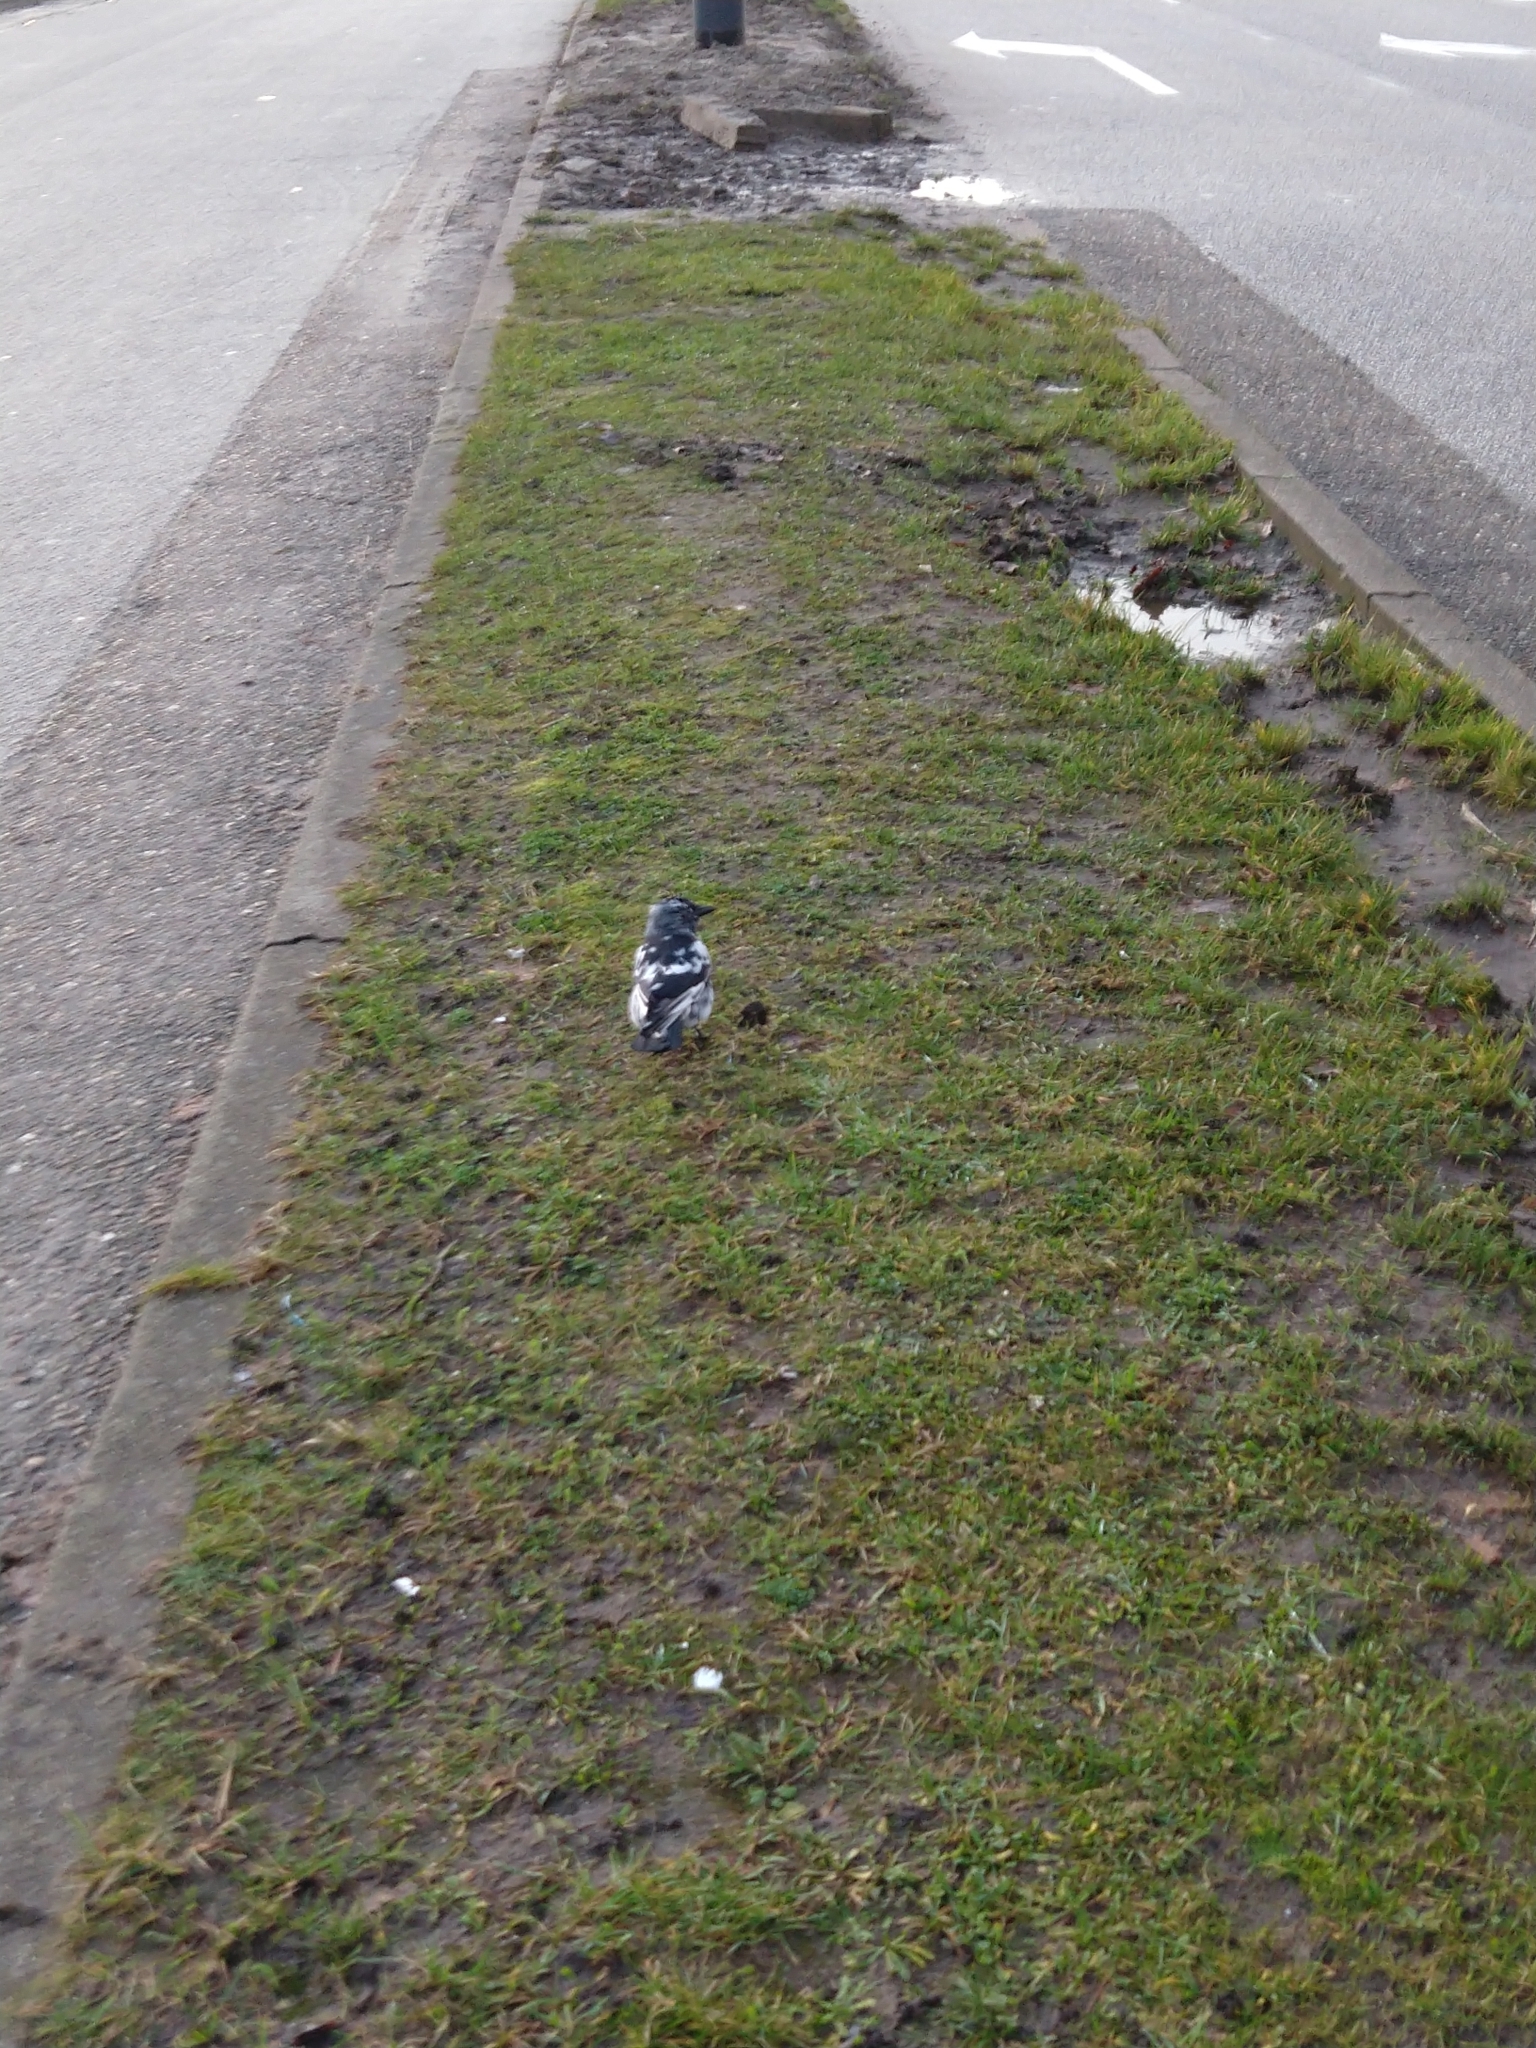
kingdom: Animalia
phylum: Chordata
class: Aves
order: Passeriformes
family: Corvidae
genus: Coloeus
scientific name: Coloeus monedula
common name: Western jackdaw
